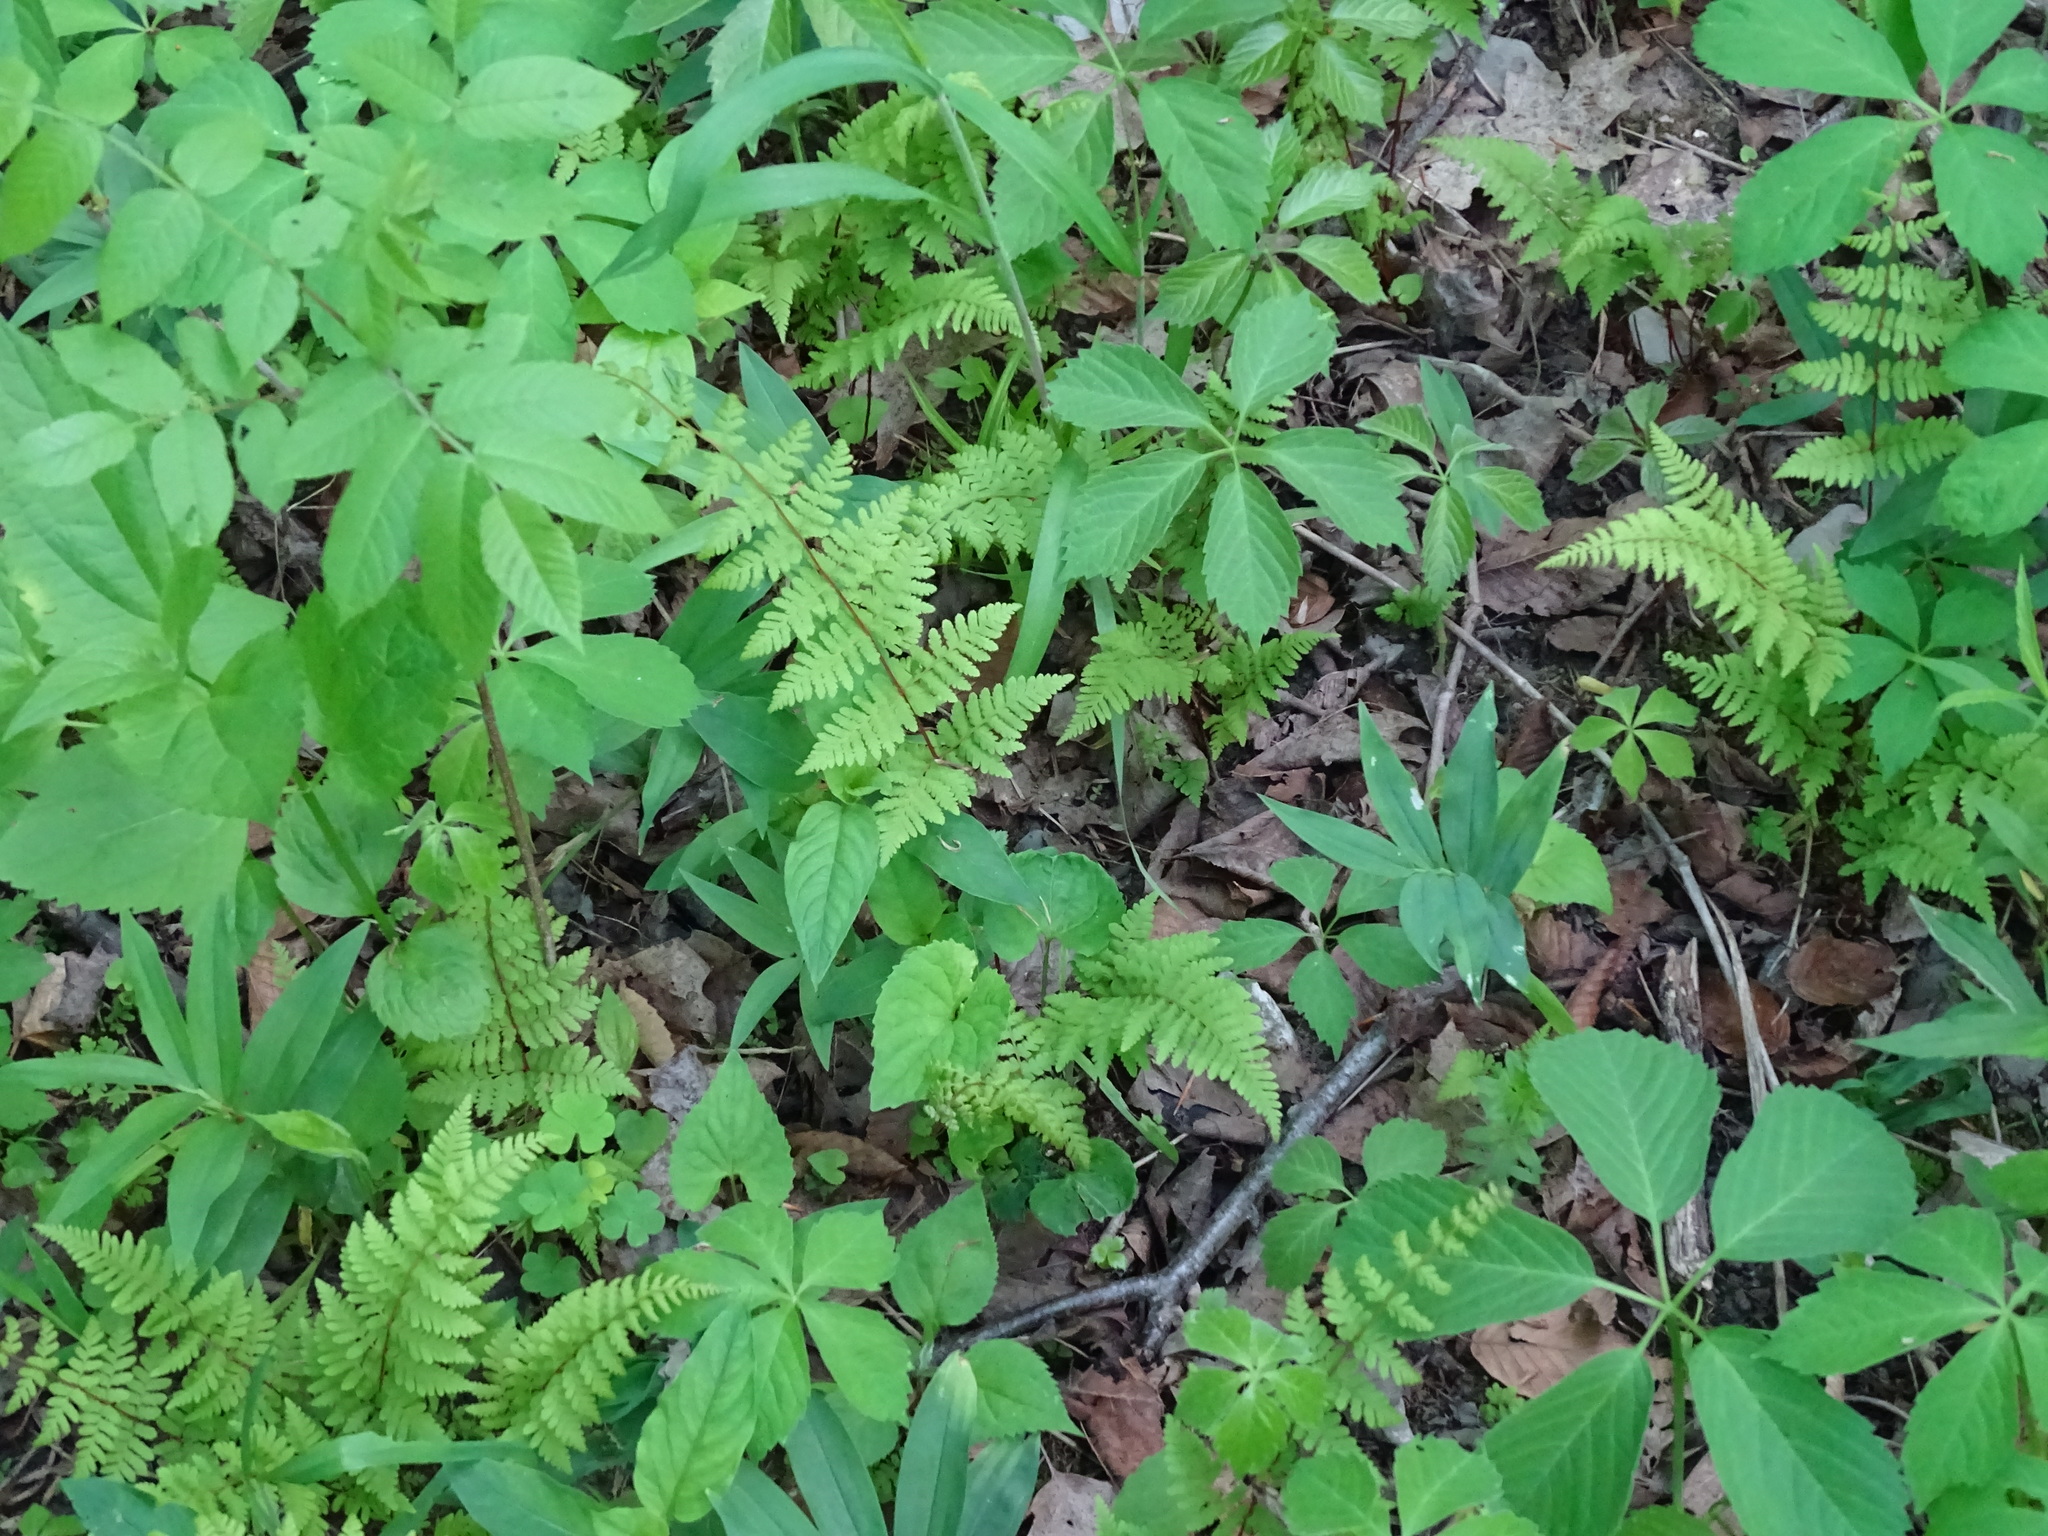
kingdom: Plantae
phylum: Tracheophyta
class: Polypodiopsida
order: Polypodiales
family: Cystopteridaceae
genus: Cystopteris
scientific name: Cystopteris bulbifera
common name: Bulblet bladder fern
